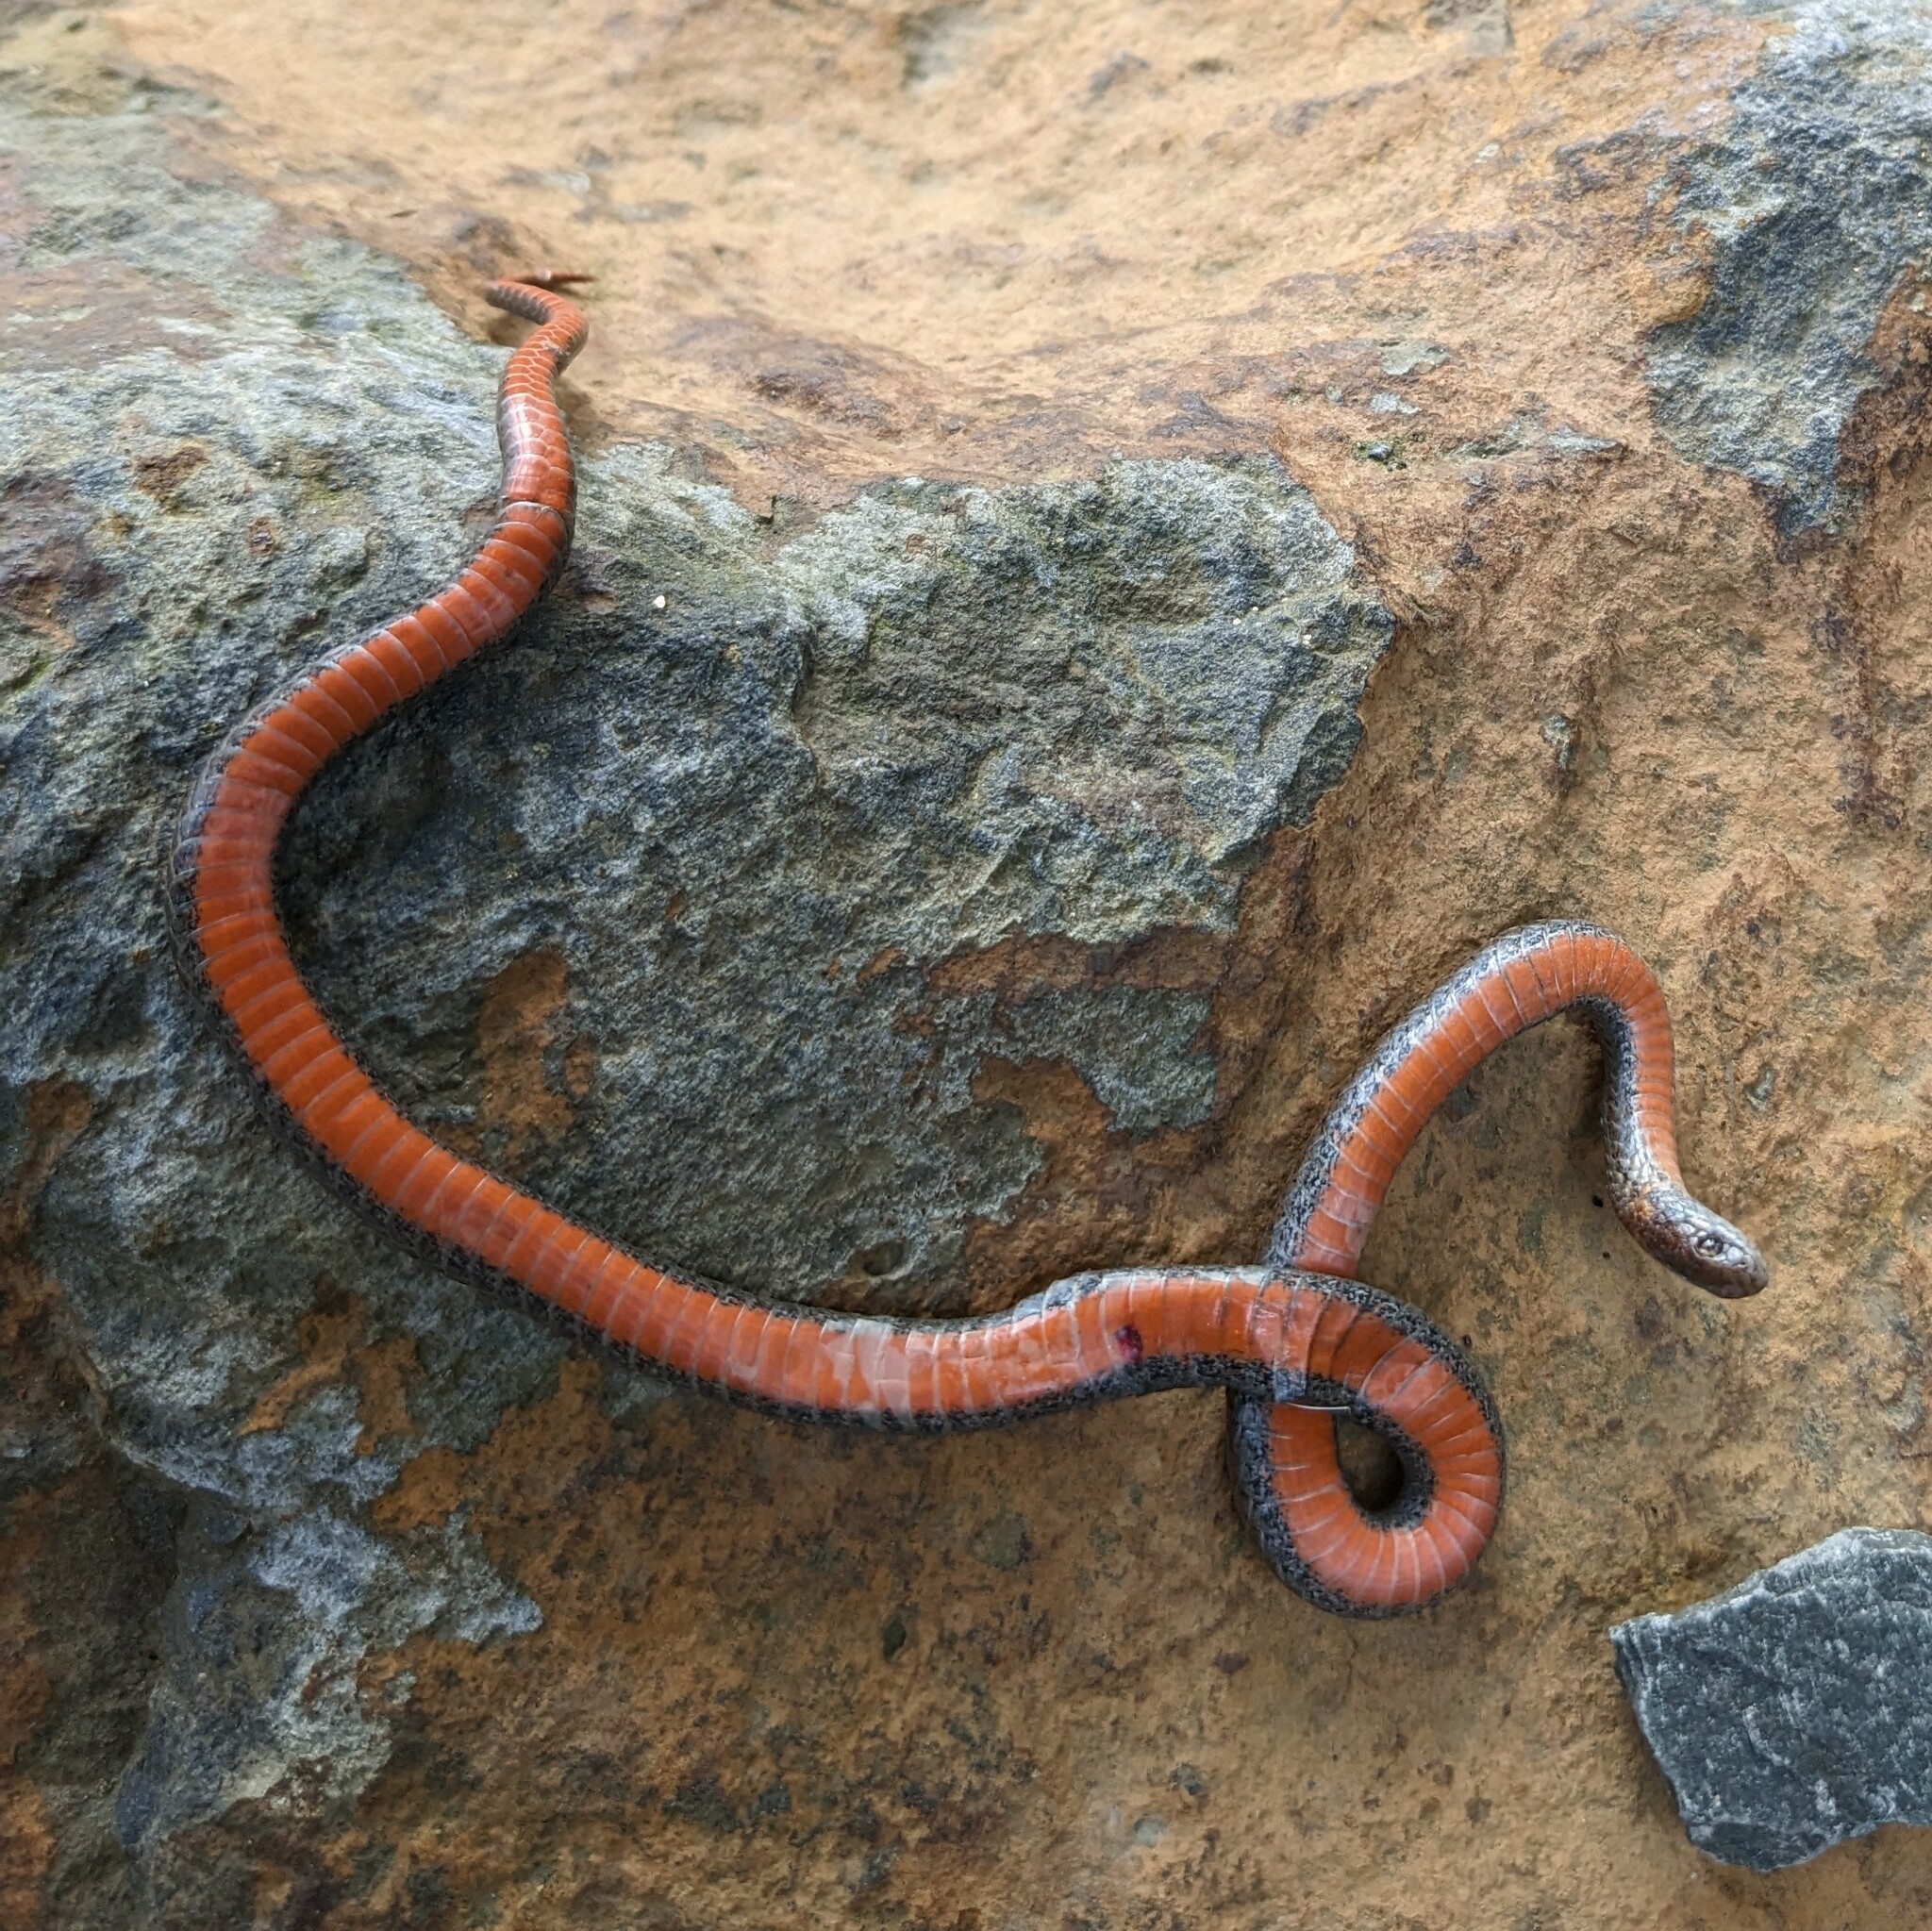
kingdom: Animalia
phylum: Chordata
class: Squamata
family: Colubridae
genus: Storeria
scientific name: Storeria occipitomaculata
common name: Redbelly snake
